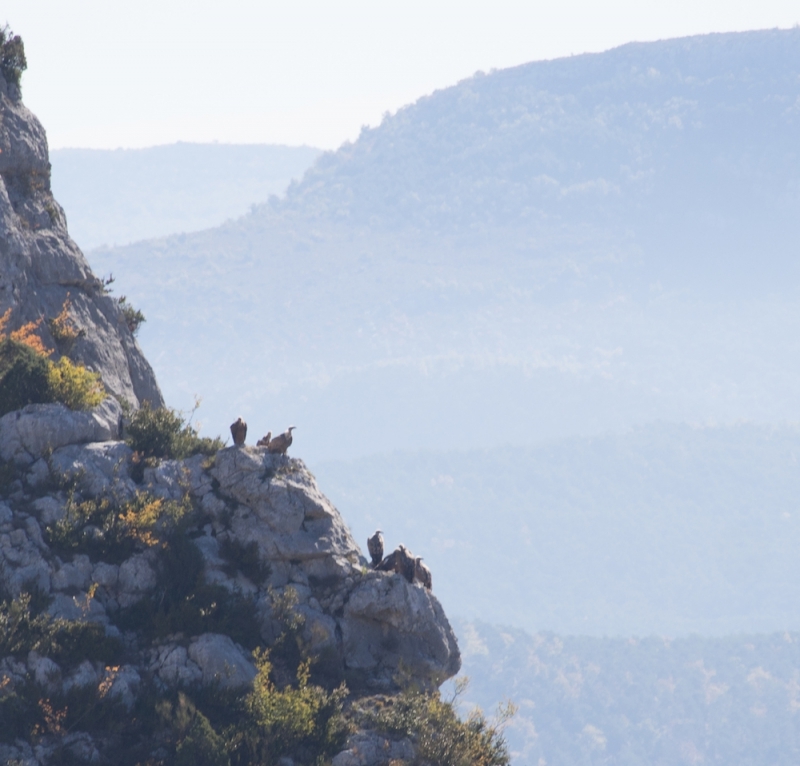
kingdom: Animalia
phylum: Chordata
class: Aves
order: Accipitriformes
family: Accipitridae
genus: Gyps
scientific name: Gyps fulvus
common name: Griffon vulture
